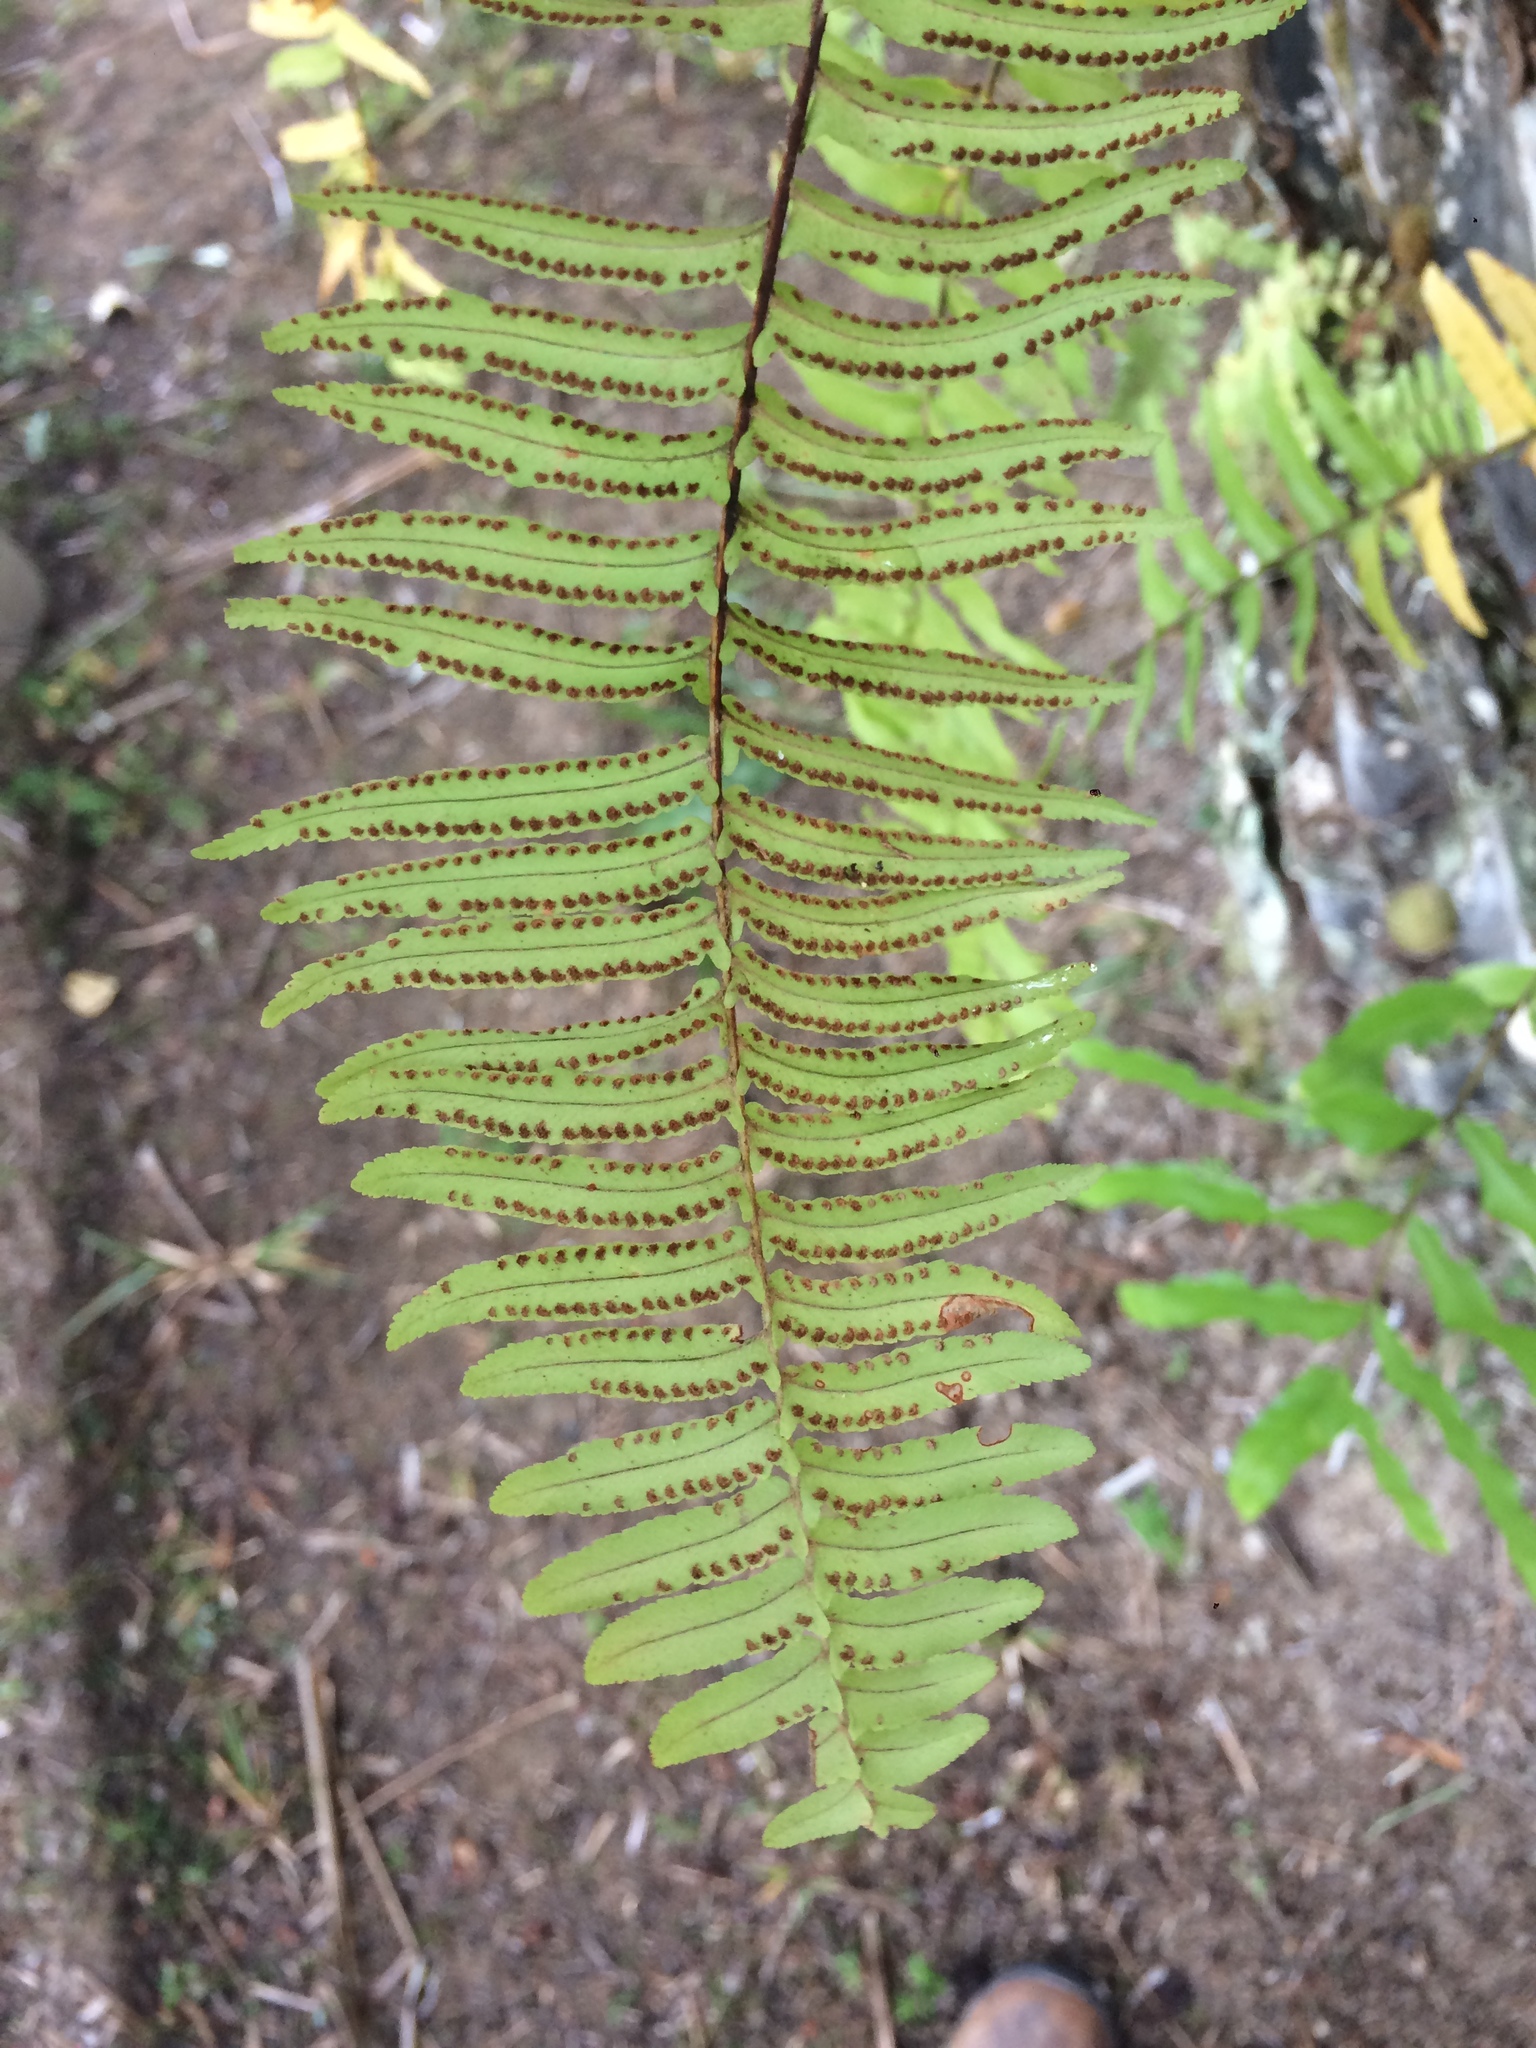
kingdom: Plantae
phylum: Tracheophyta
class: Polypodiopsida
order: Polypodiales
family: Nephrolepidaceae
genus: Nephrolepis
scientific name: Nephrolepis rivularis
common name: Streamside swordfern
